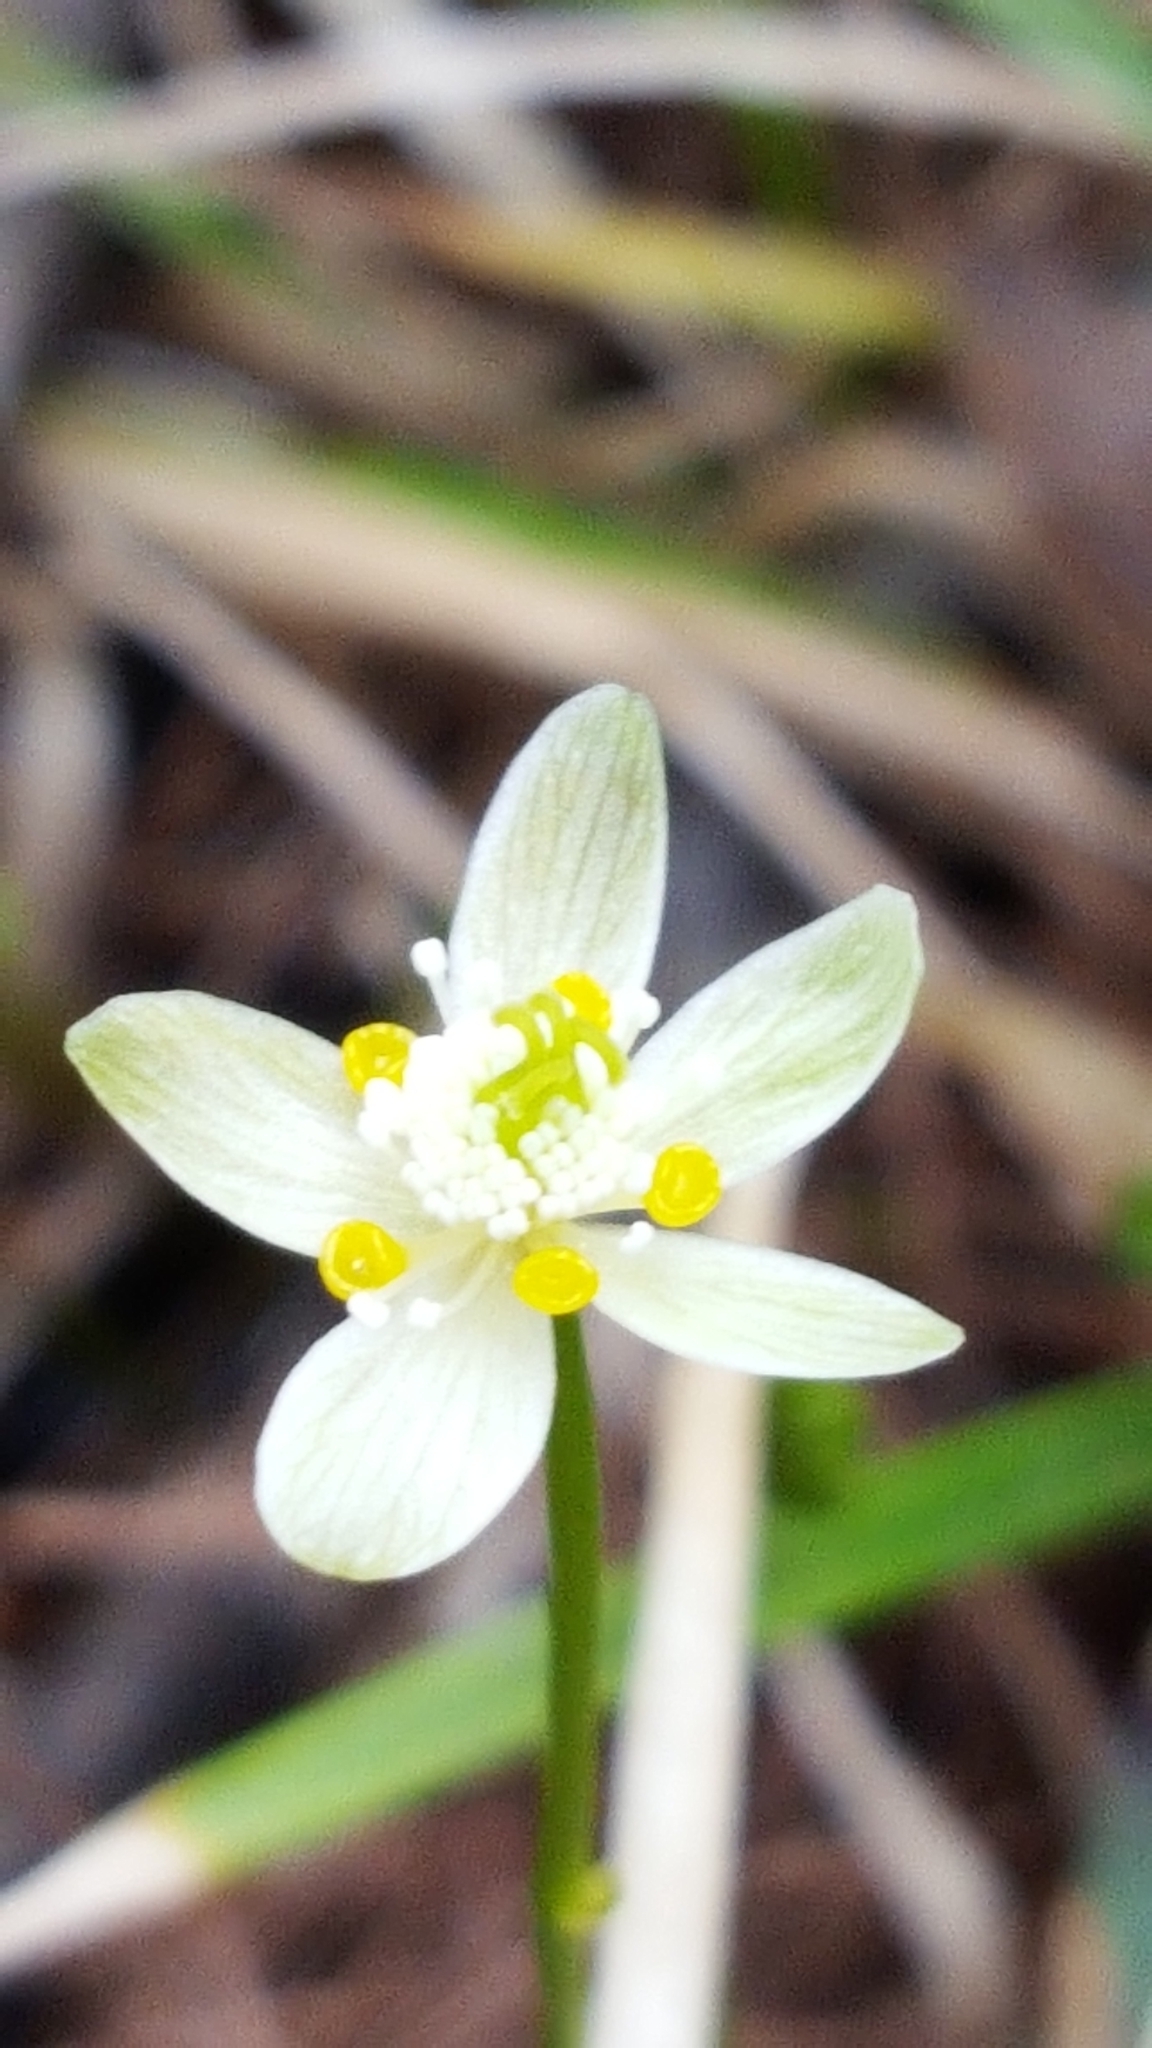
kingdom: Plantae
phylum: Tracheophyta
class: Magnoliopsida
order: Ranunculales
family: Ranunculaceae
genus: Coptis
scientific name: Coptis trifolia
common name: Canker-root
